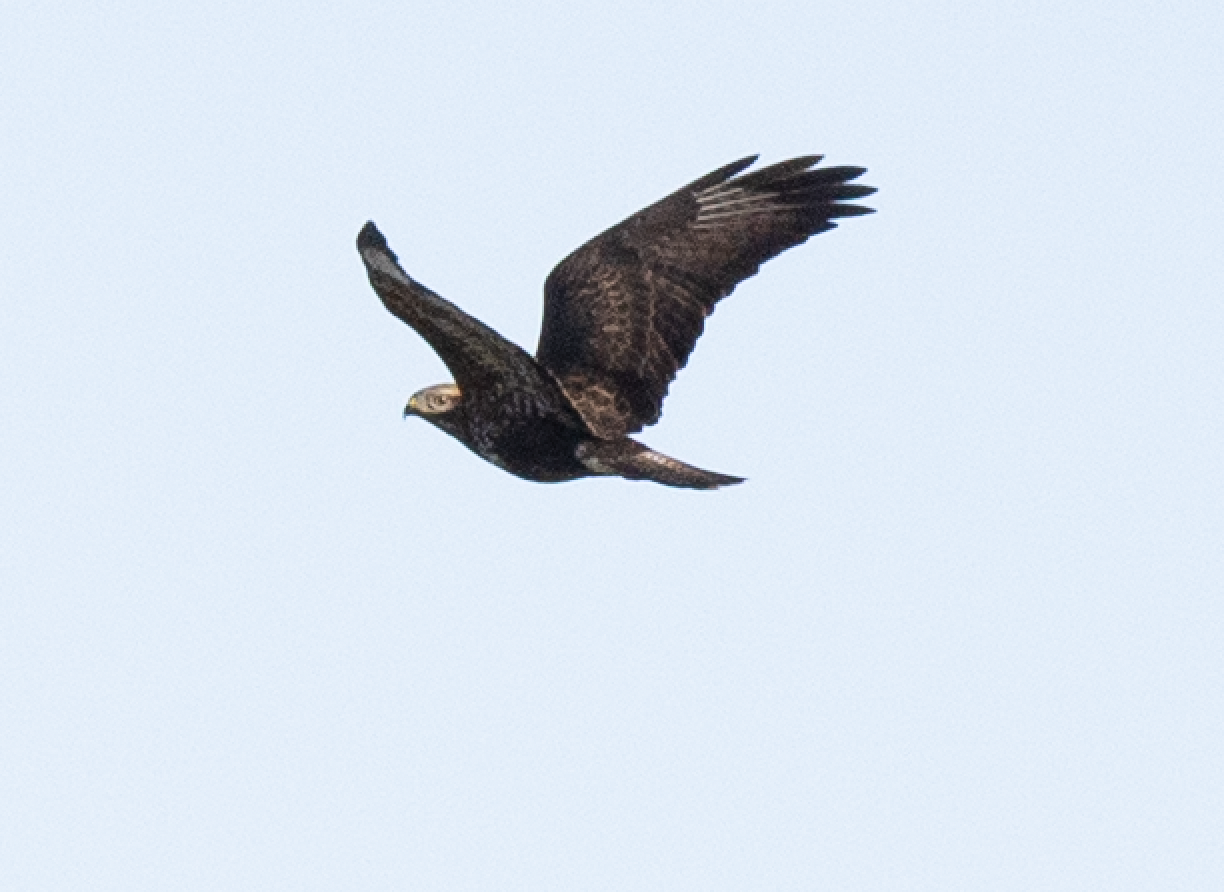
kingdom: Animalia
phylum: Chordata
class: Aves
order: Accipitriformes
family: Accipitridae
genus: Buteo
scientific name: Buteo buteo
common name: Common buzzard
